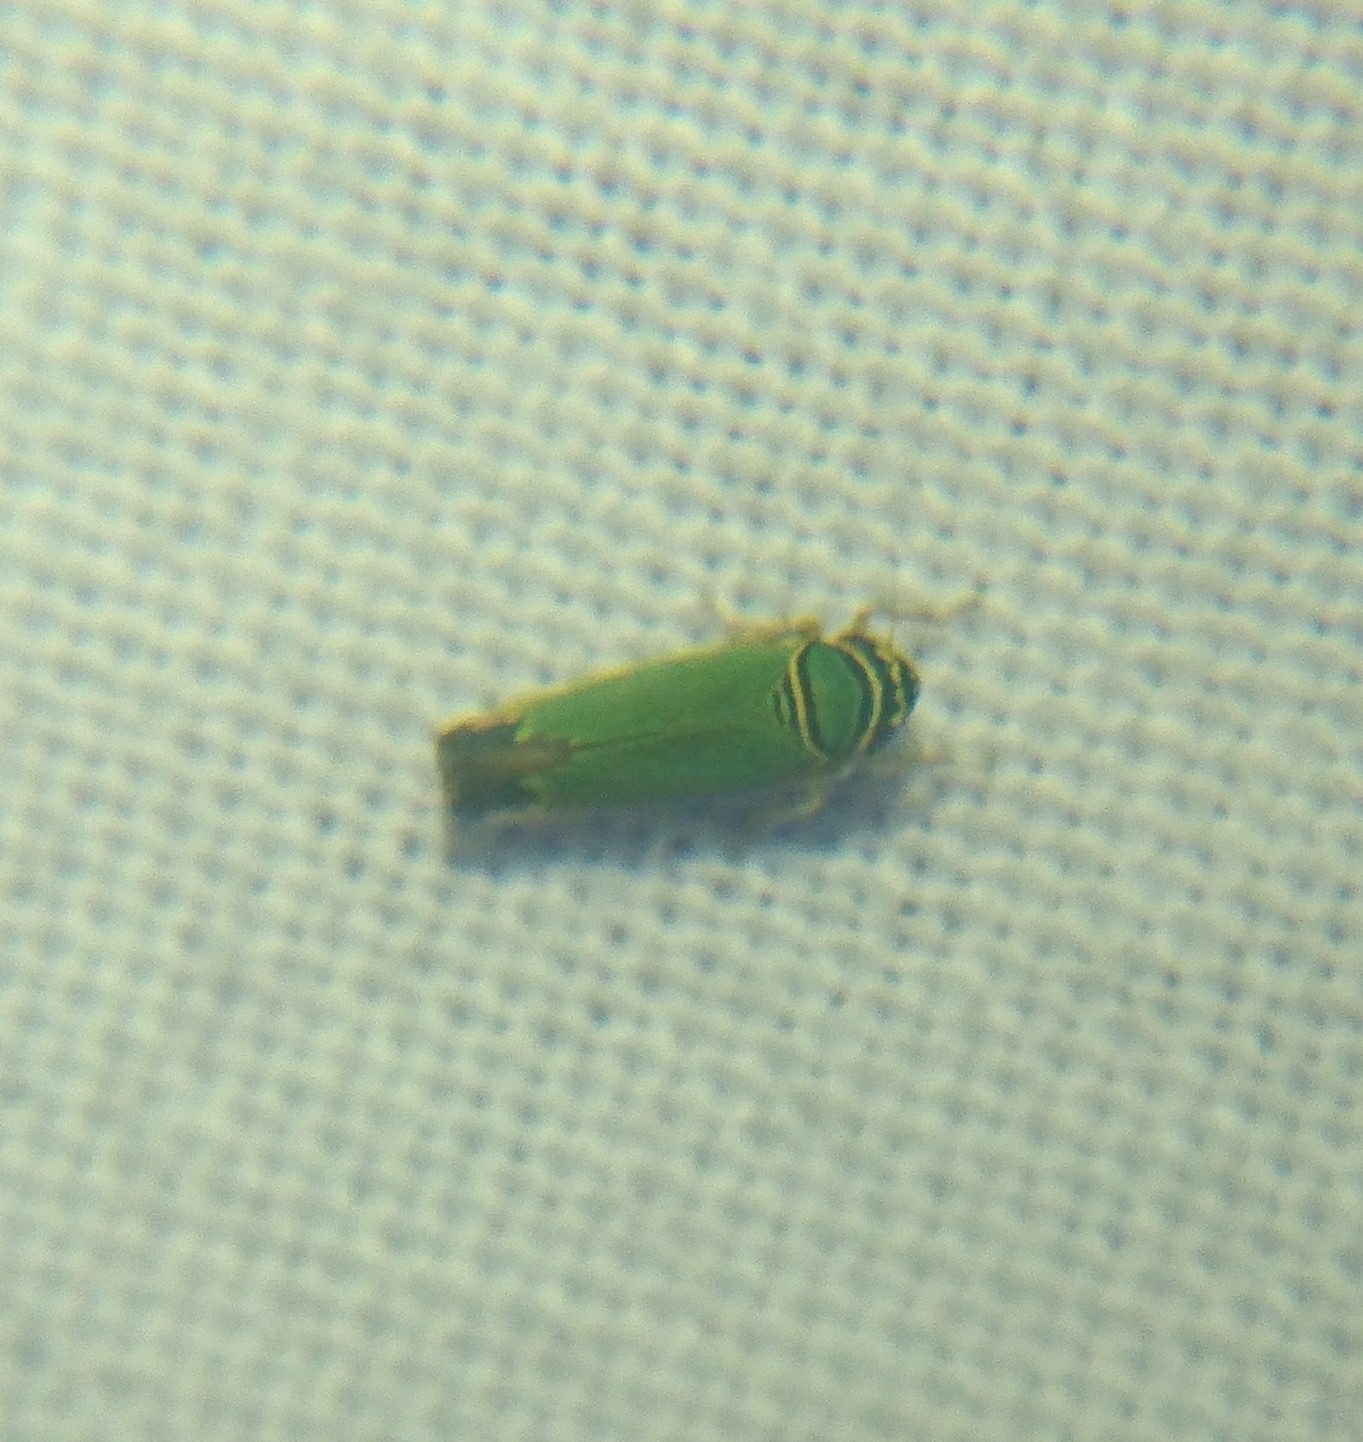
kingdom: Animalia
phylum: Arthropoda
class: Insecta
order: Hemiptera
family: Cicadellidae
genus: Tylozygus
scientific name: Tylozygus geometricus
